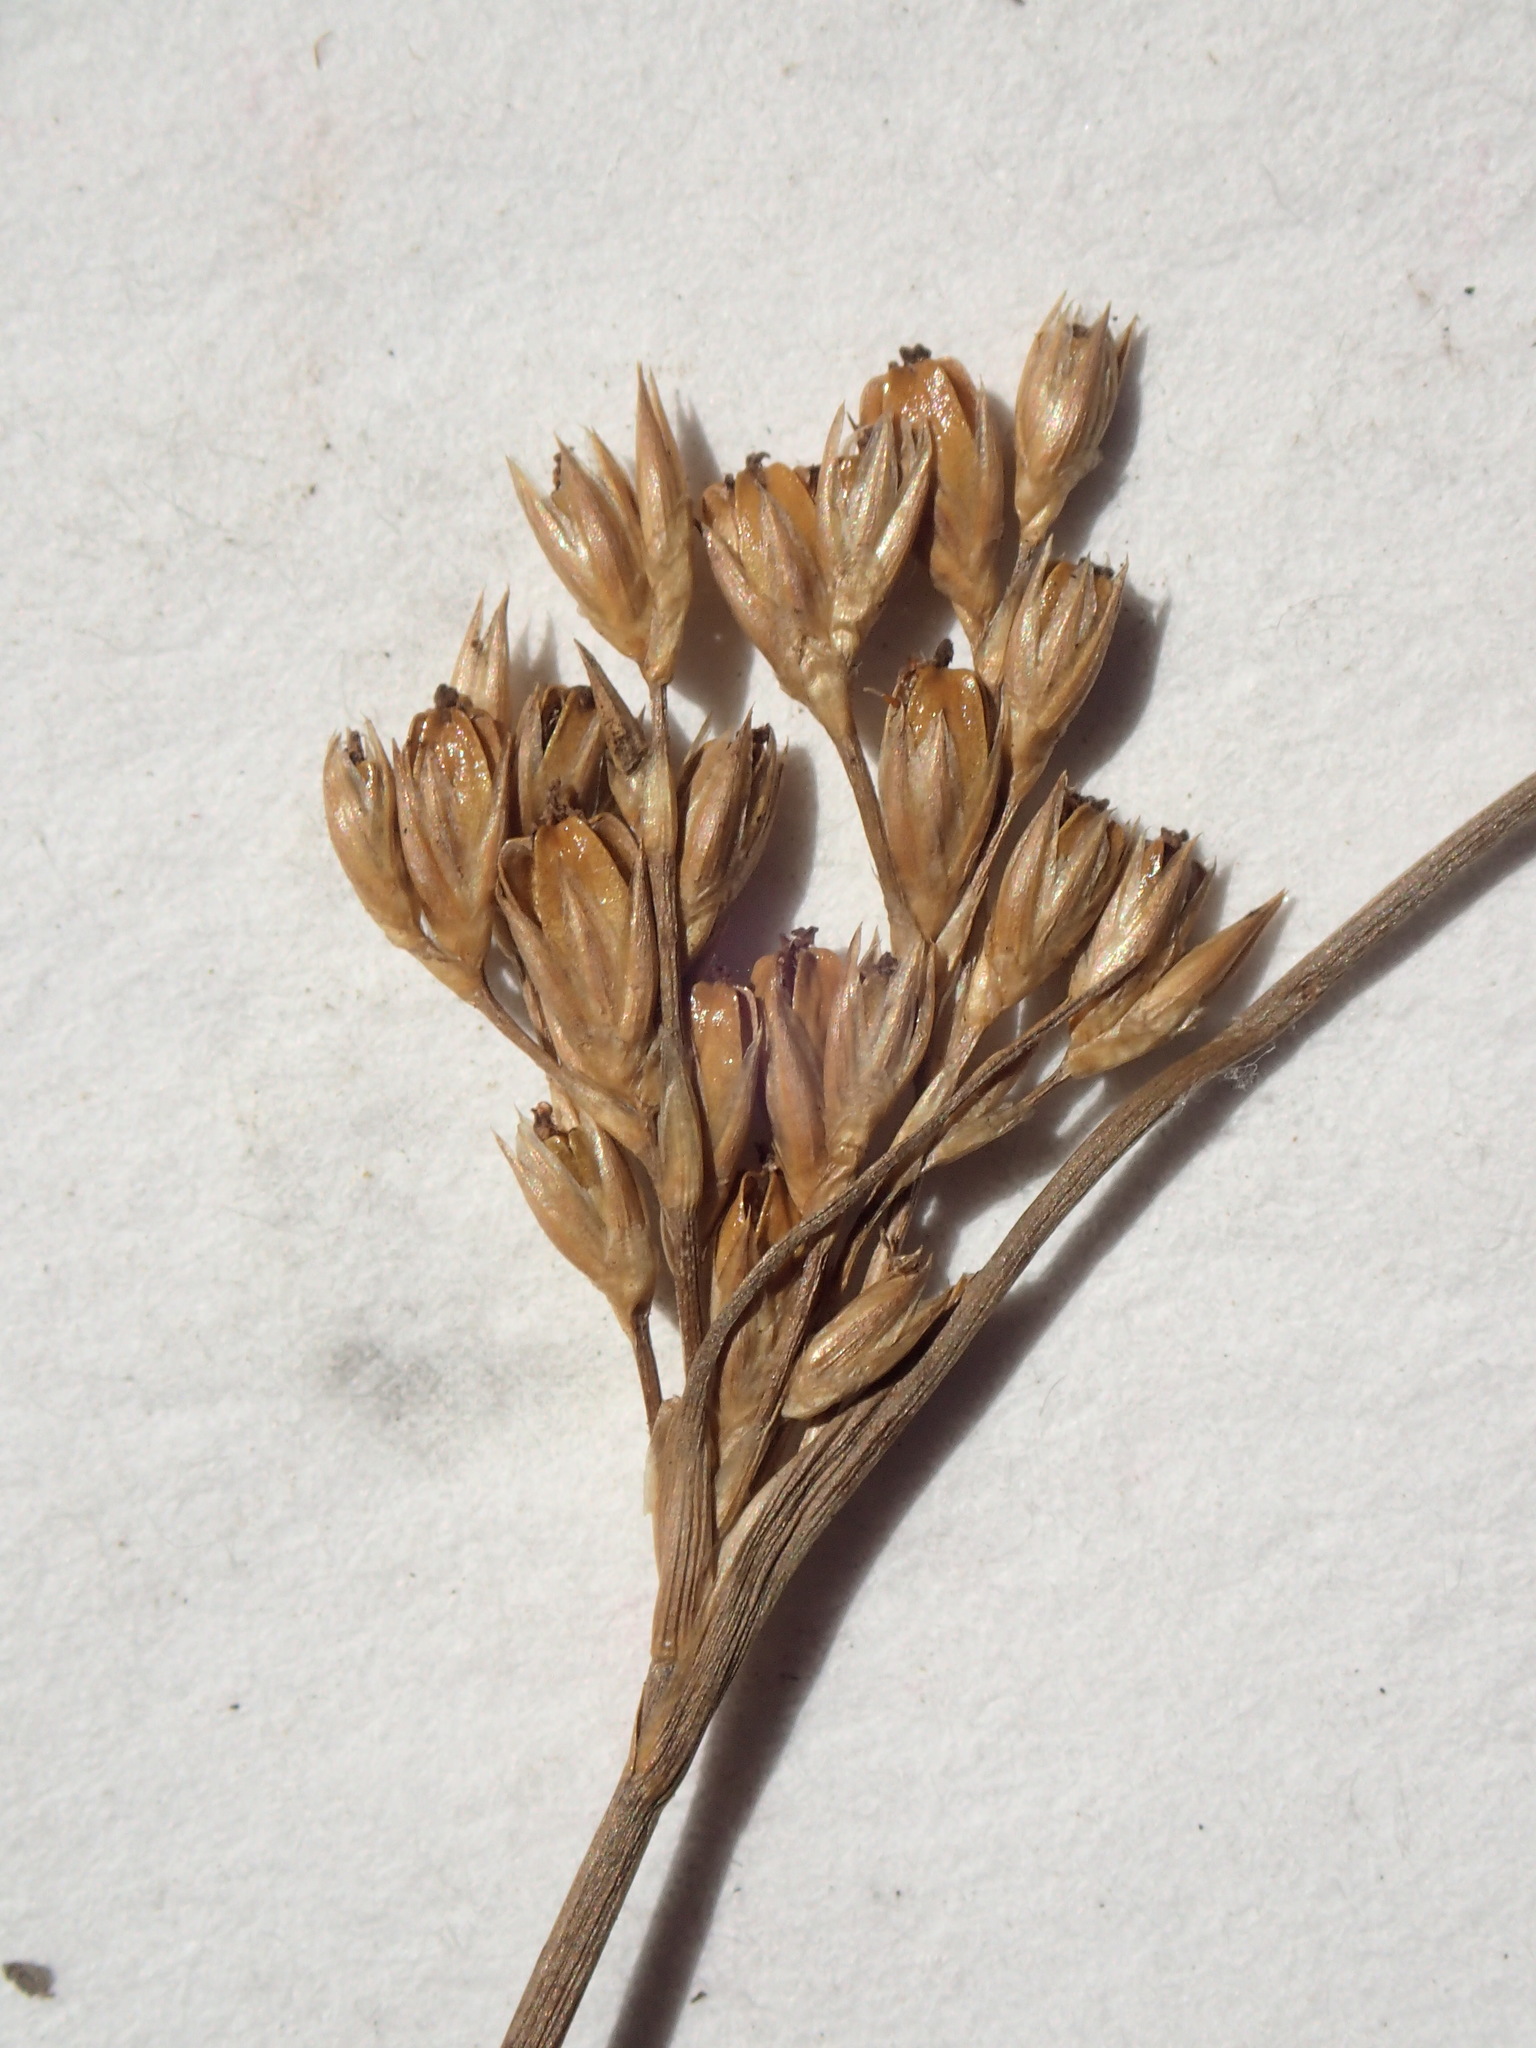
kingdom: Plantae
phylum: Tracheophyta
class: Liliopsida
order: Poales
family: Juncaceae
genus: Juncus
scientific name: Juncus vaseyi
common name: Big-headed rush
